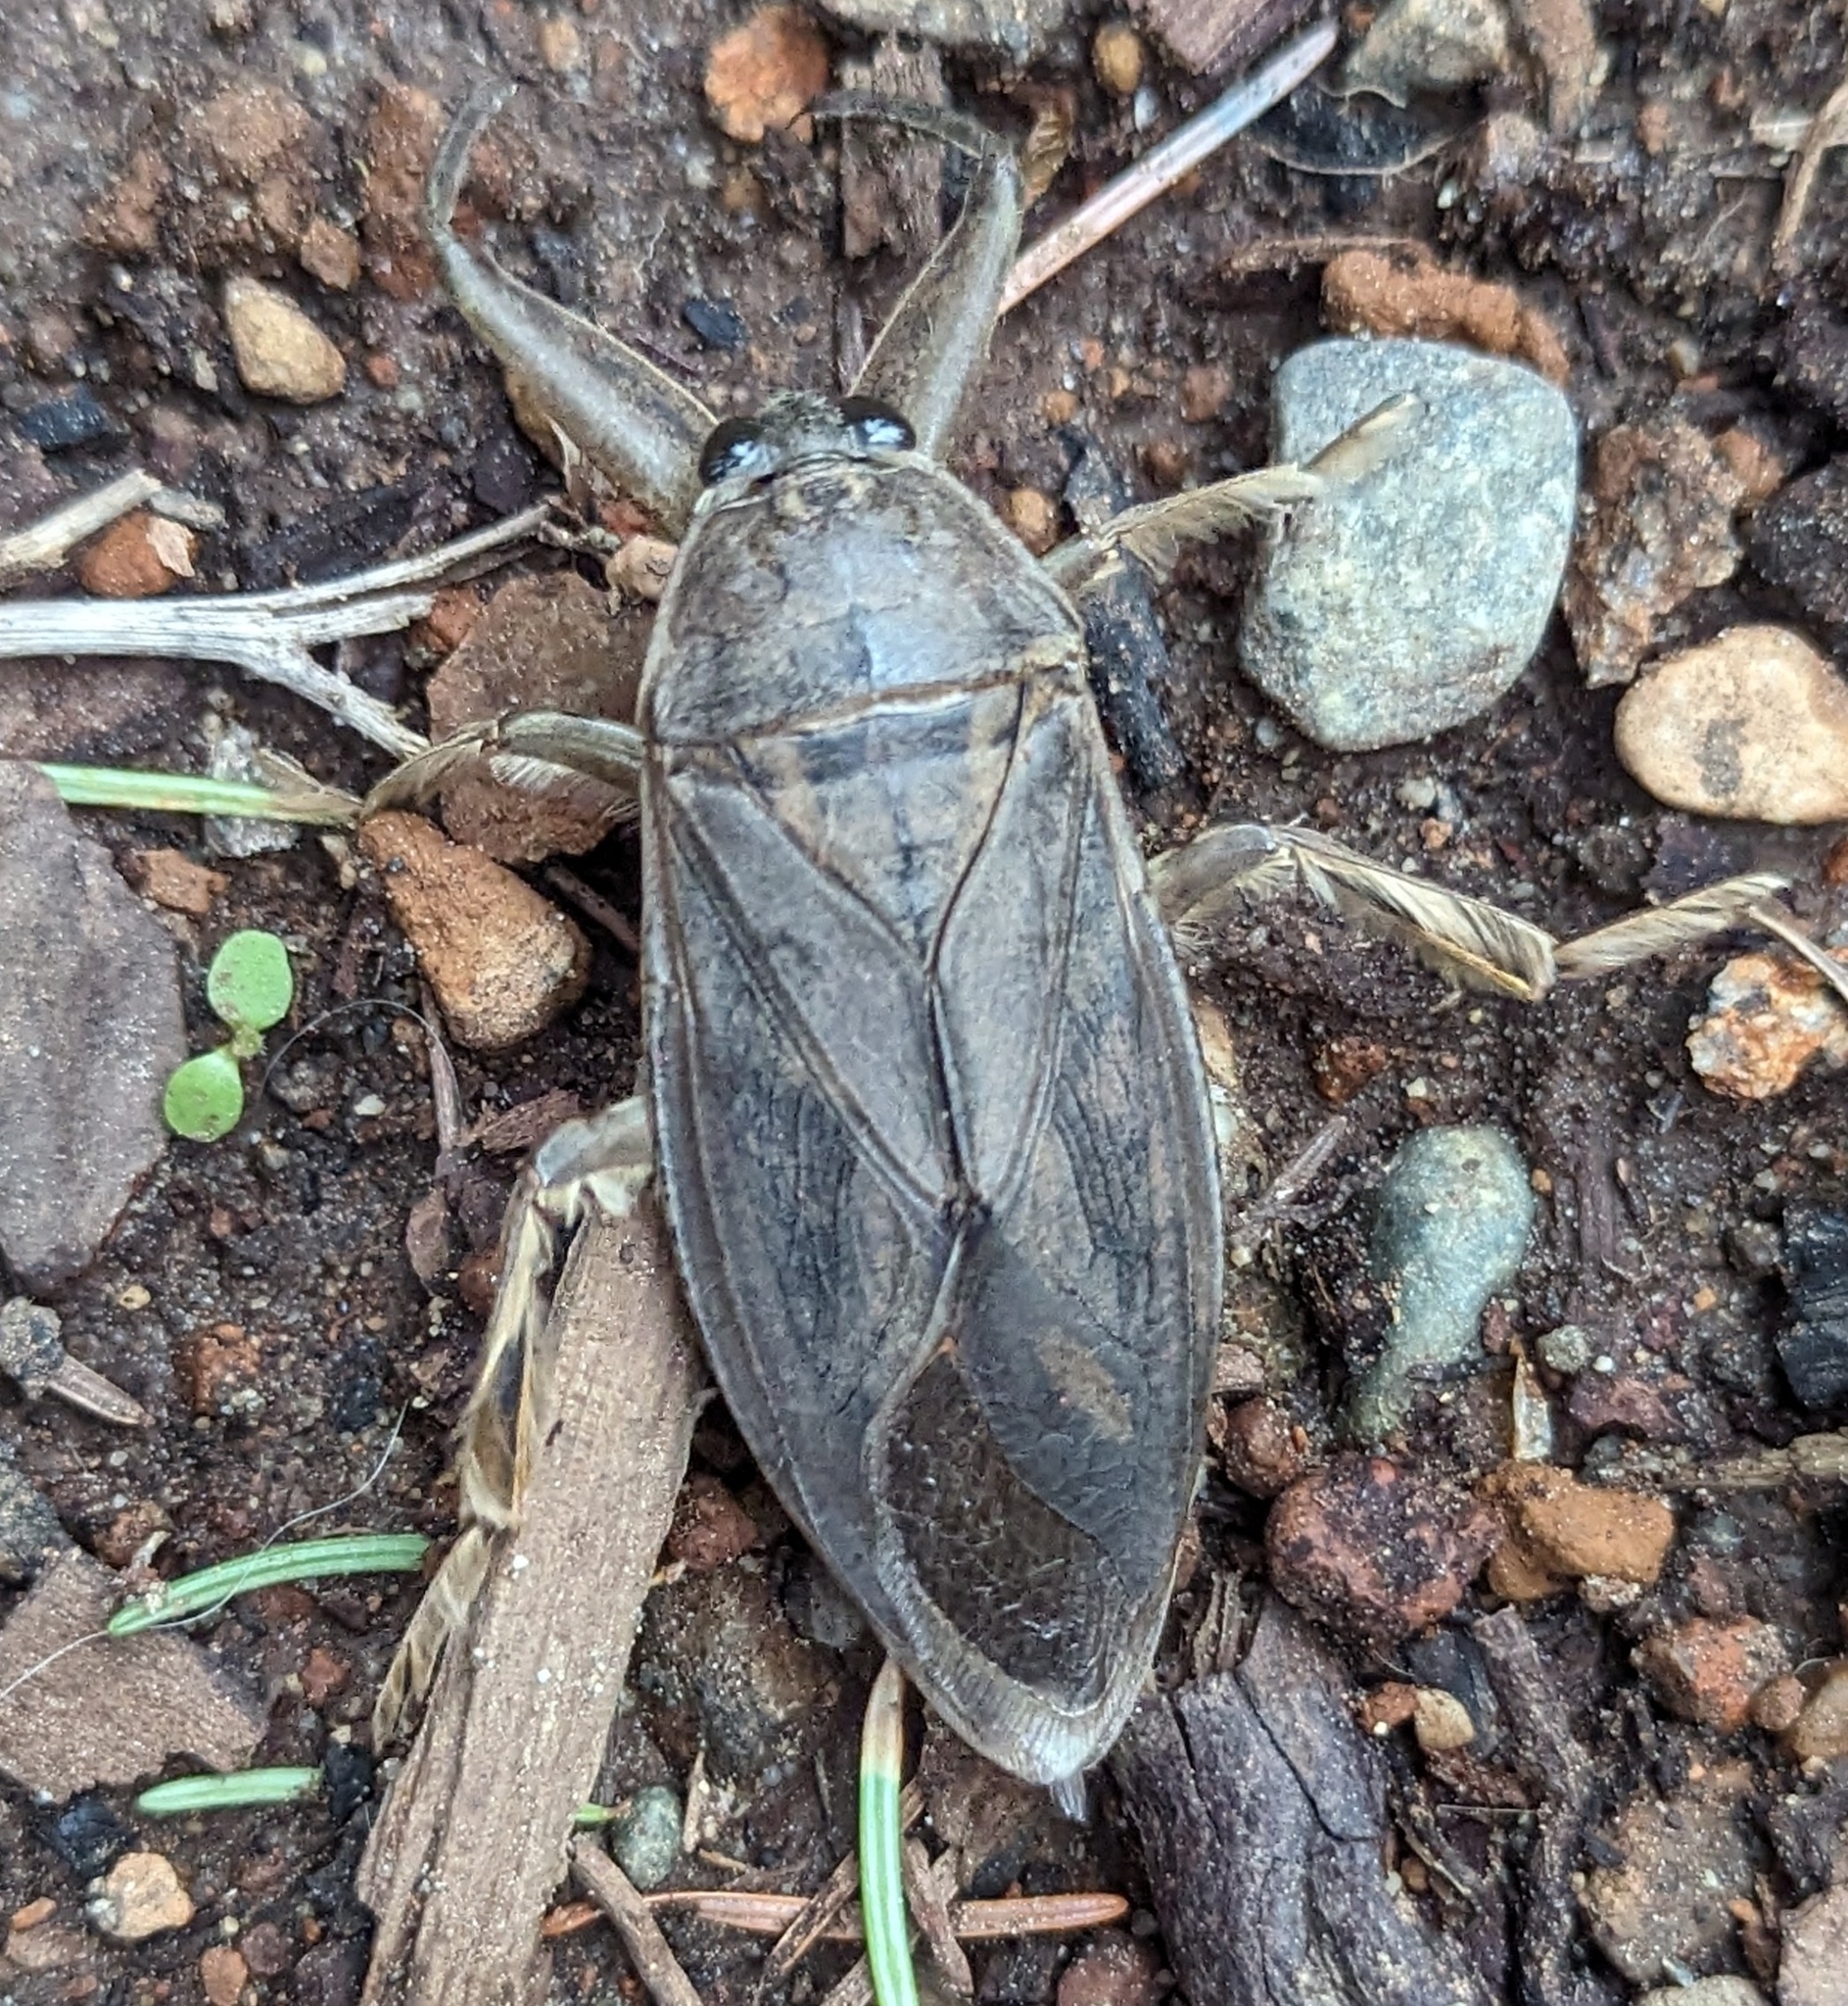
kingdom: Animalia
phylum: Arthropoda
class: Insecta
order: Hemiptera
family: Belostomatidae
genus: Lethocerus
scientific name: Lethocerus americanus
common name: Giant water bug
